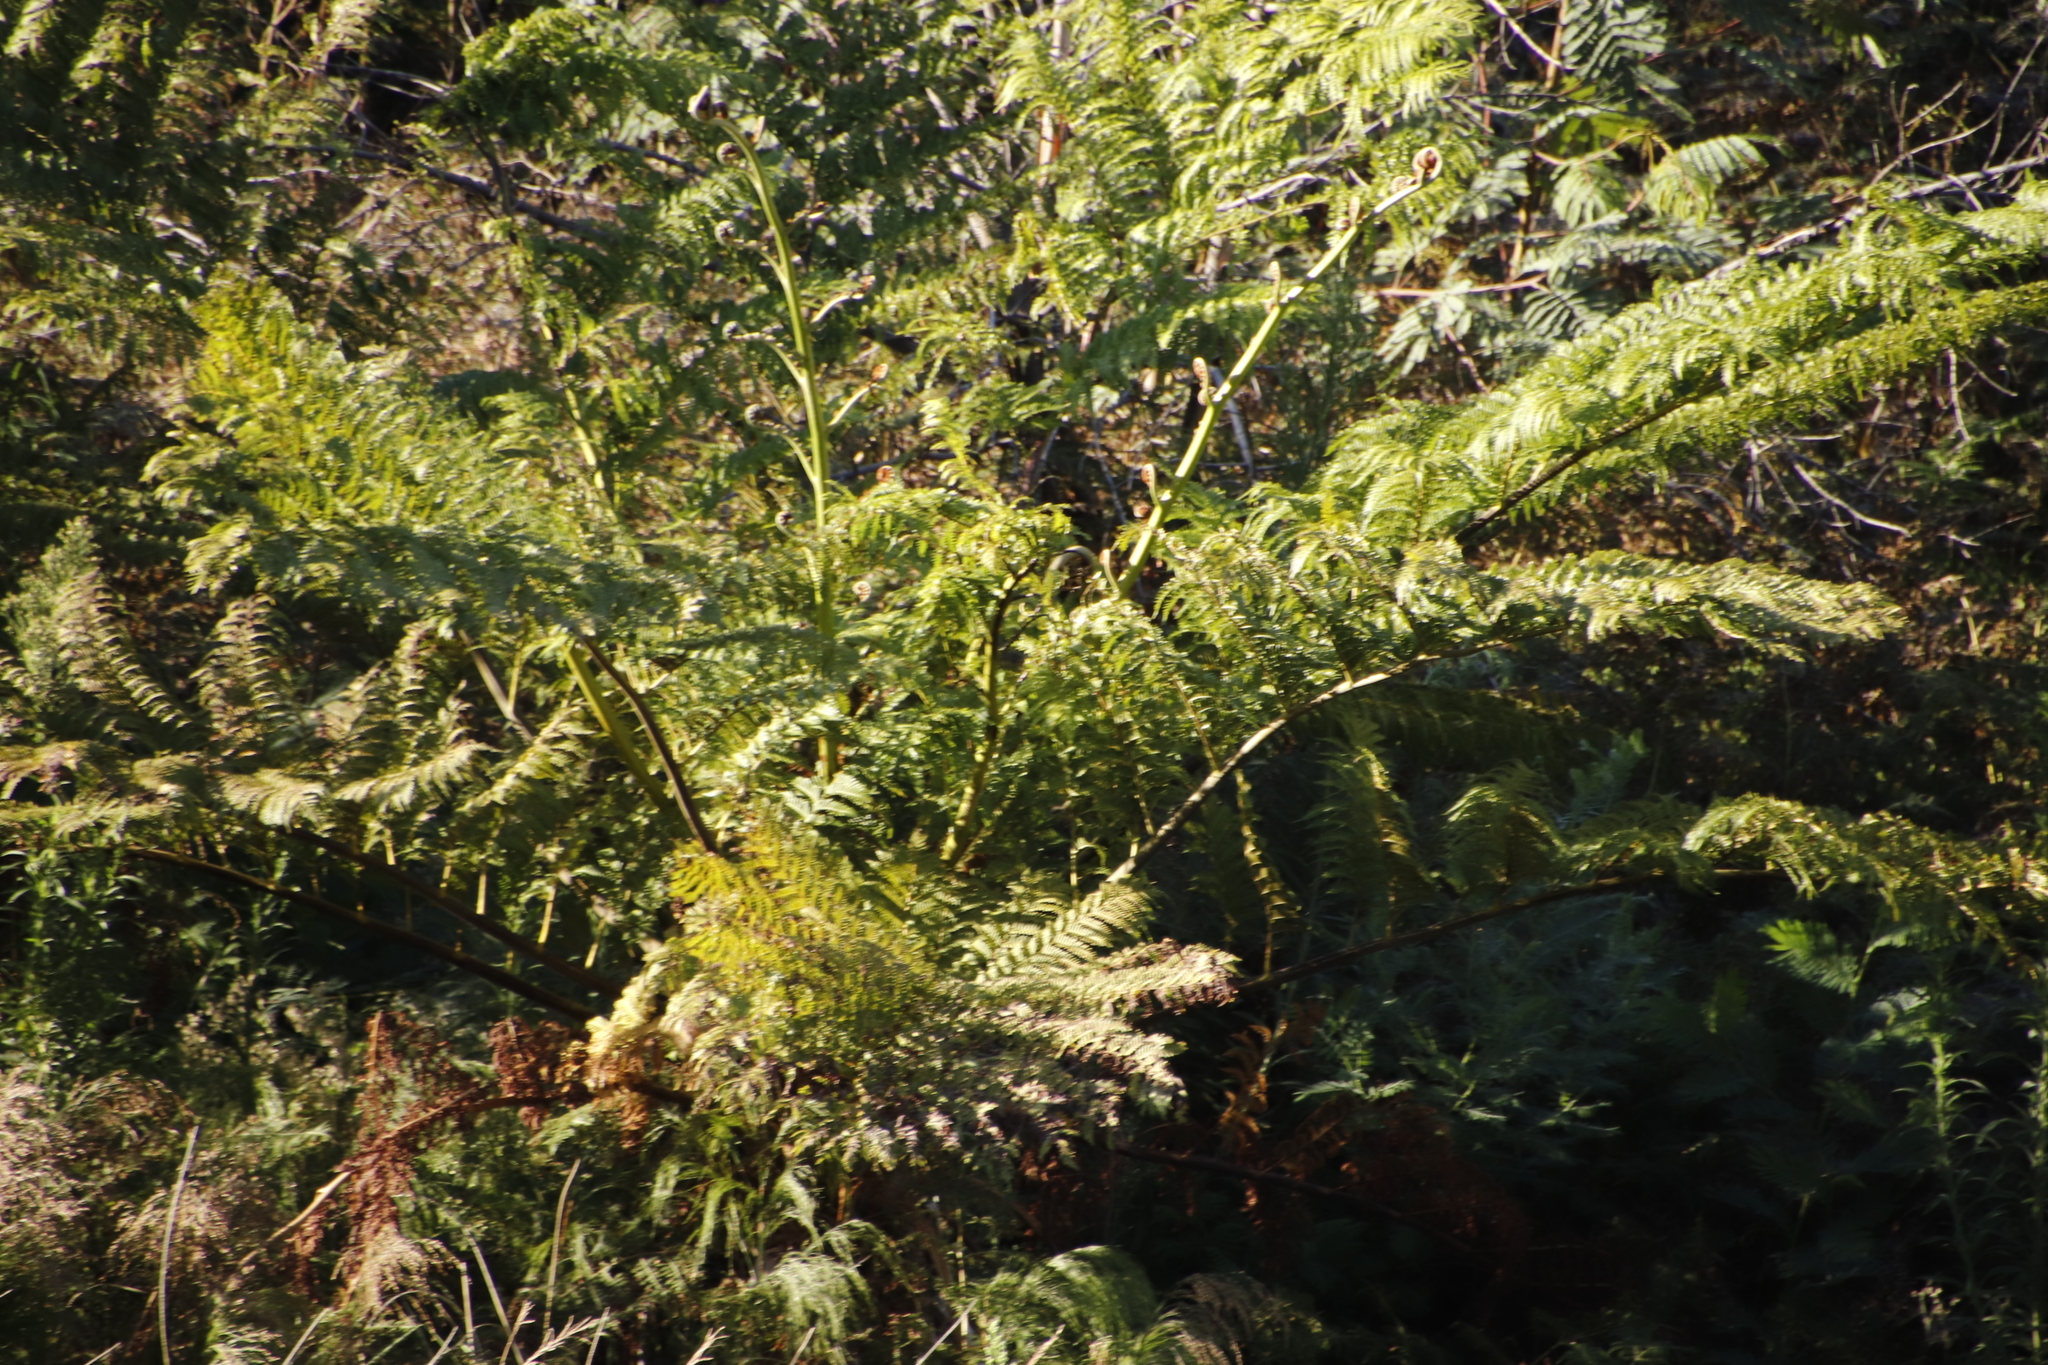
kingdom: Plantae
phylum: Tracheophyta
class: Polypodiopsida
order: Cyatheales
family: Cyatheaceae
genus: Sphaeropteris
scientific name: Sphaeropteris cooperi
